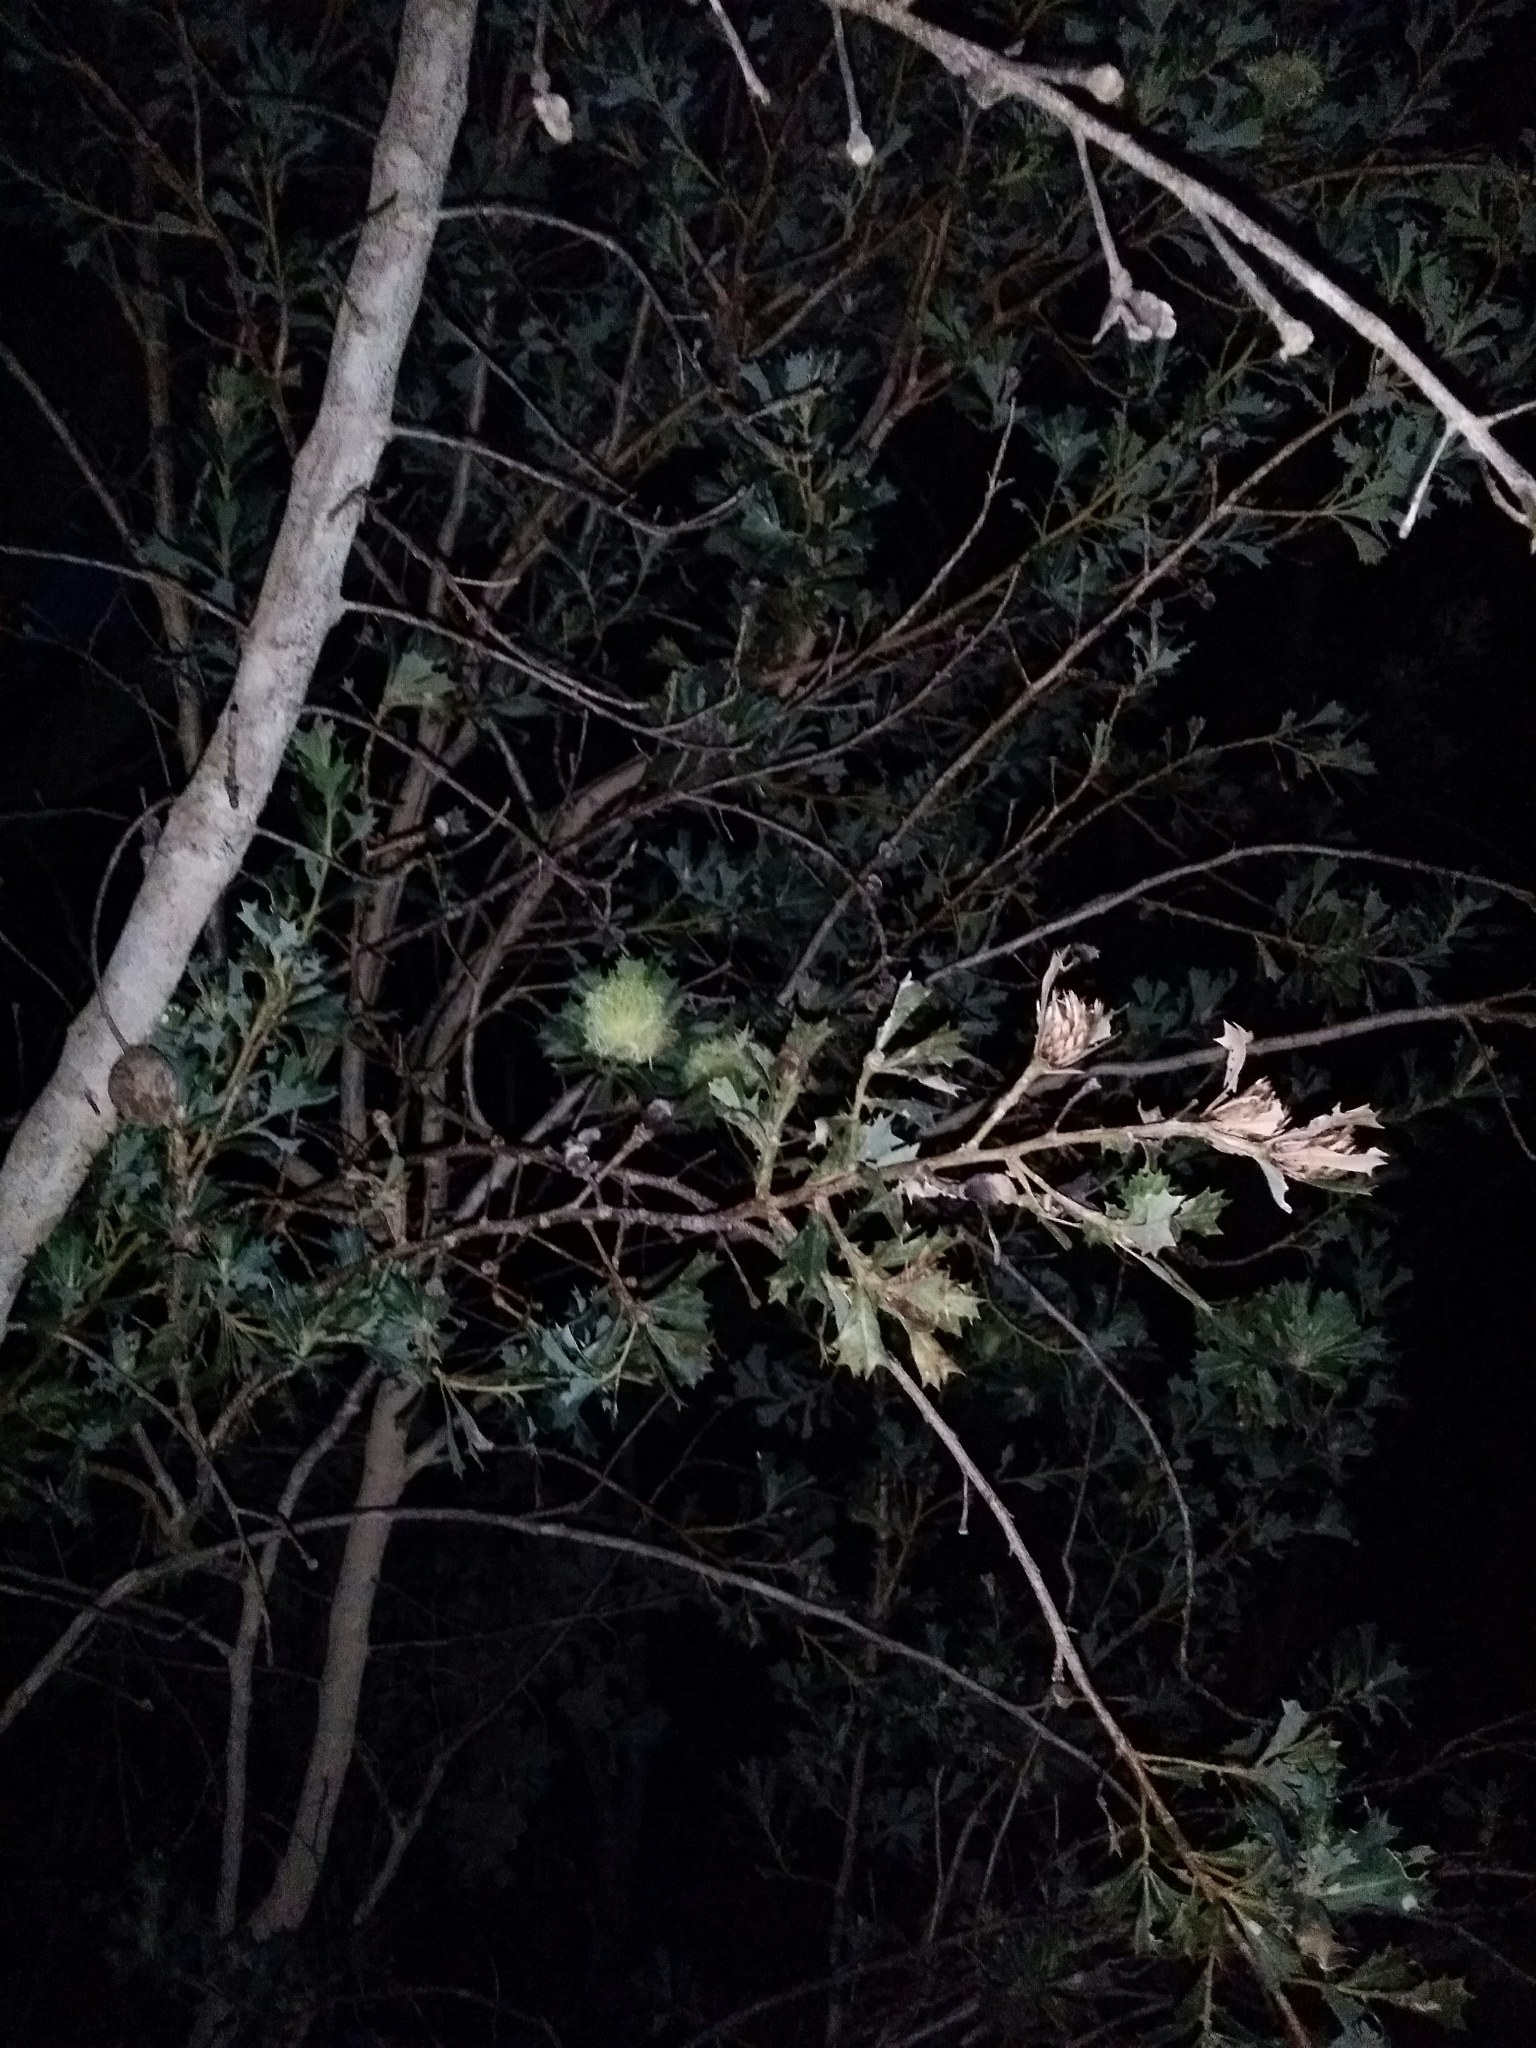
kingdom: Plantae
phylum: Tracheophyta
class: Magnoliopsida
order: Proteales
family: Proteaceae
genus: Banksia
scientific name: Banksia sessilis
